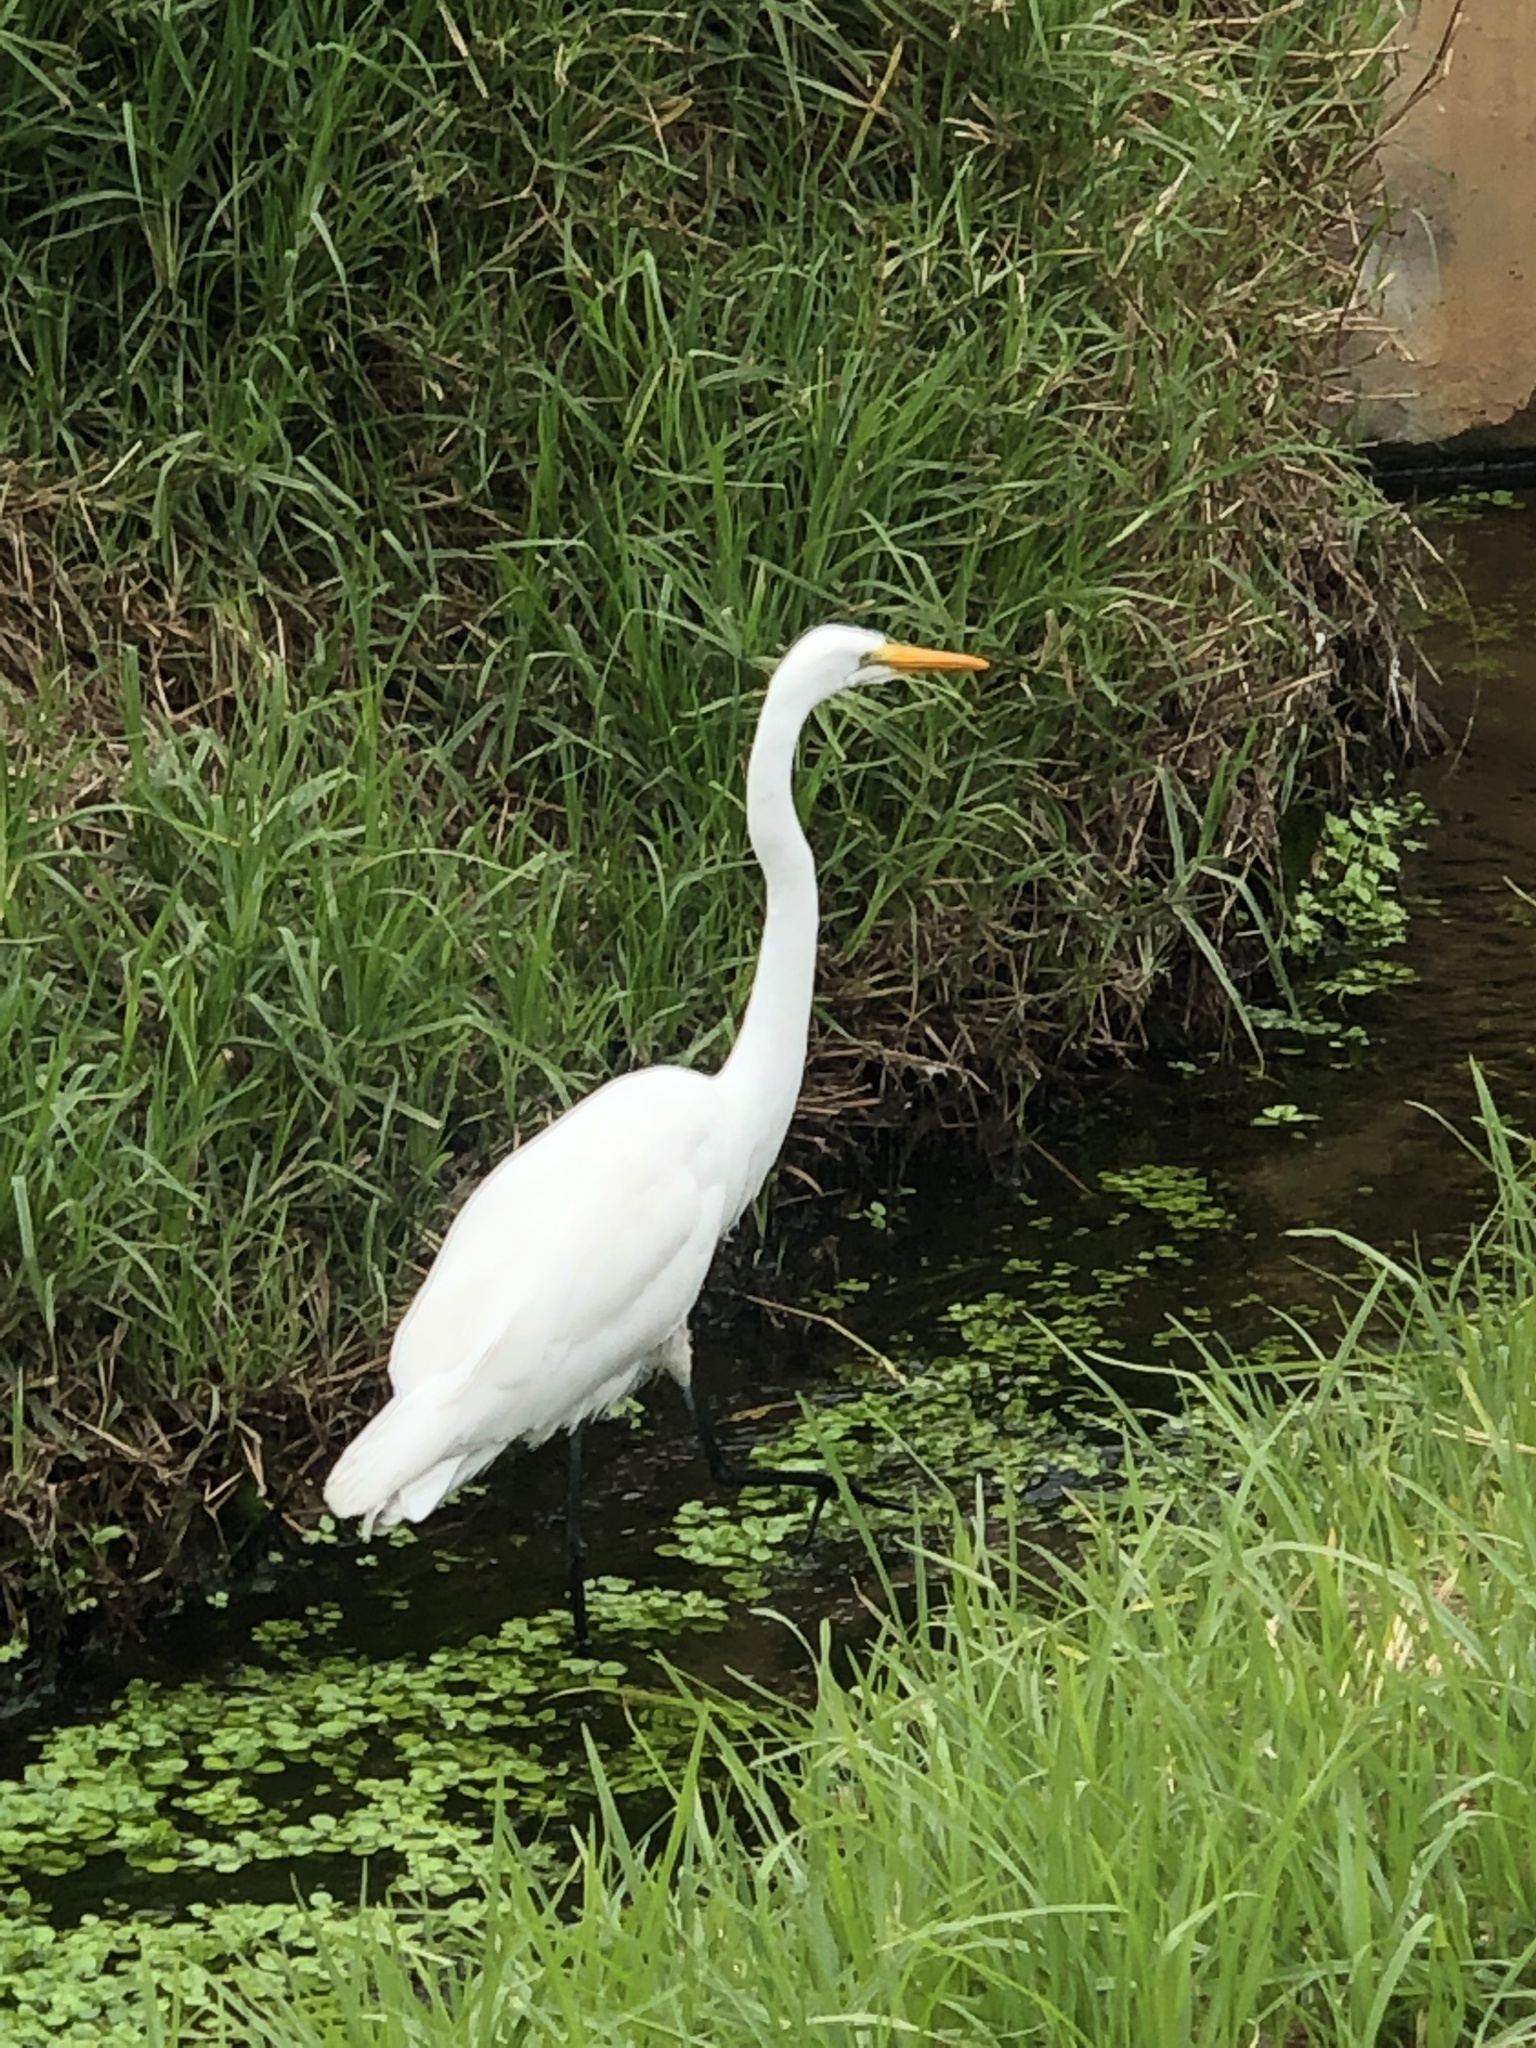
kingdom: Animalia
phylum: Chordata
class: Aves
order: Pelecaniformes
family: Ardeidae
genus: Ardea
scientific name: Ardea alba
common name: Great egret
